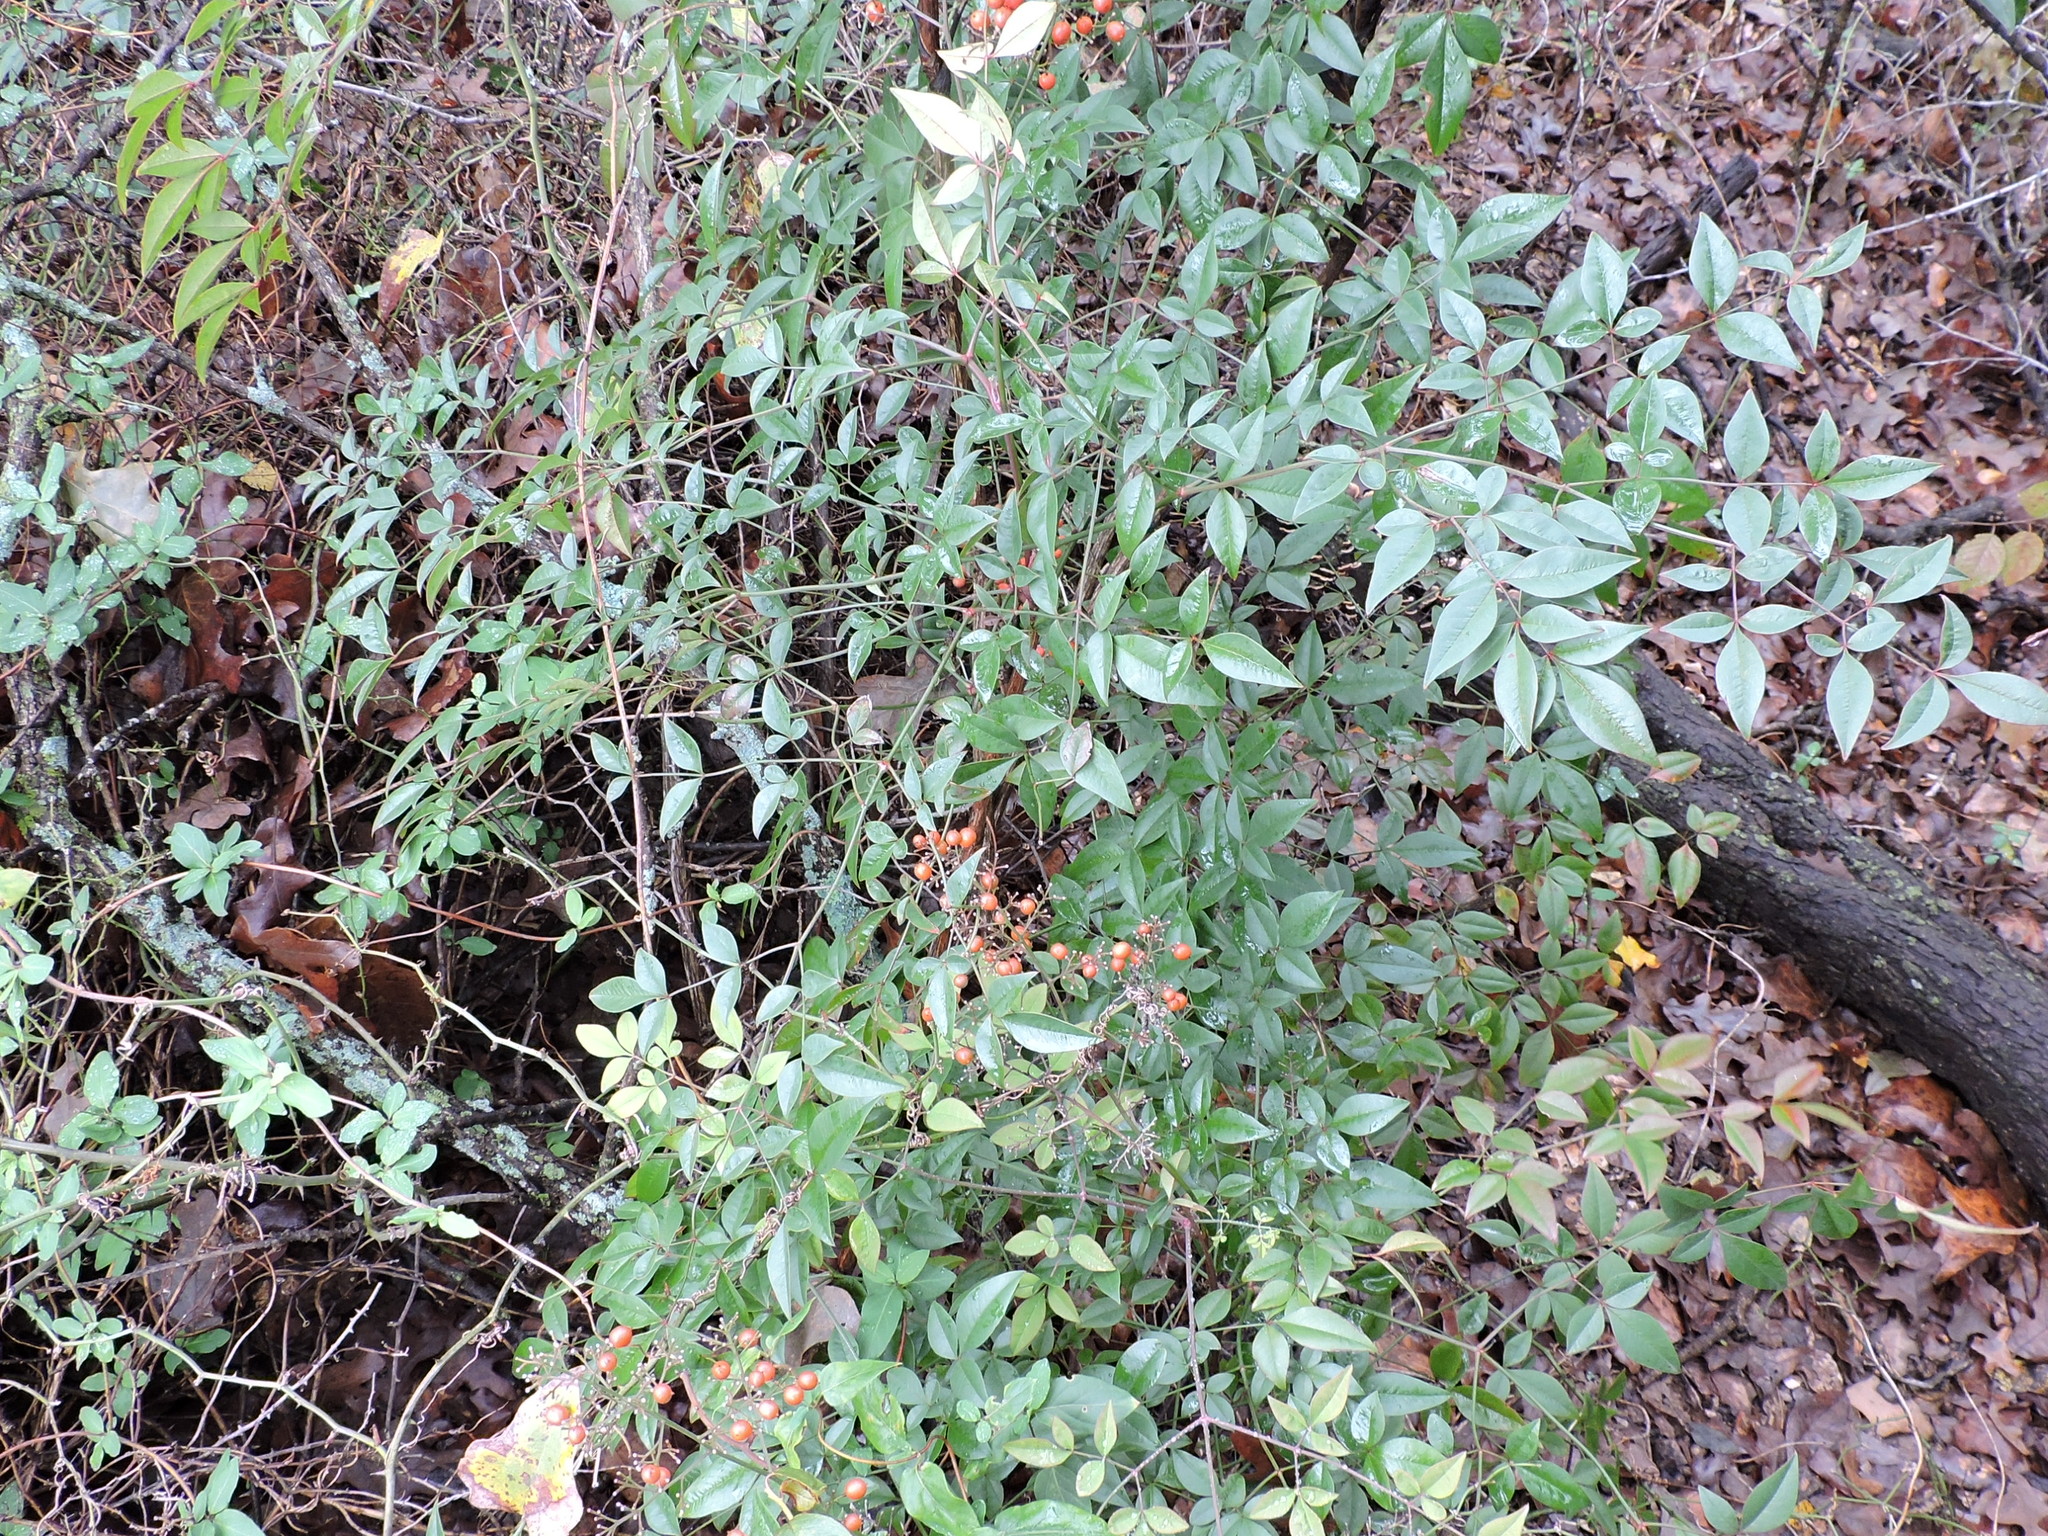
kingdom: Plantae
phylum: Tracheophyta
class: Magnoliopsida
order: Ranunculales
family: Berberidaceae
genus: Nandina
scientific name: Nandina domestica
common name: Sacred bamboo
